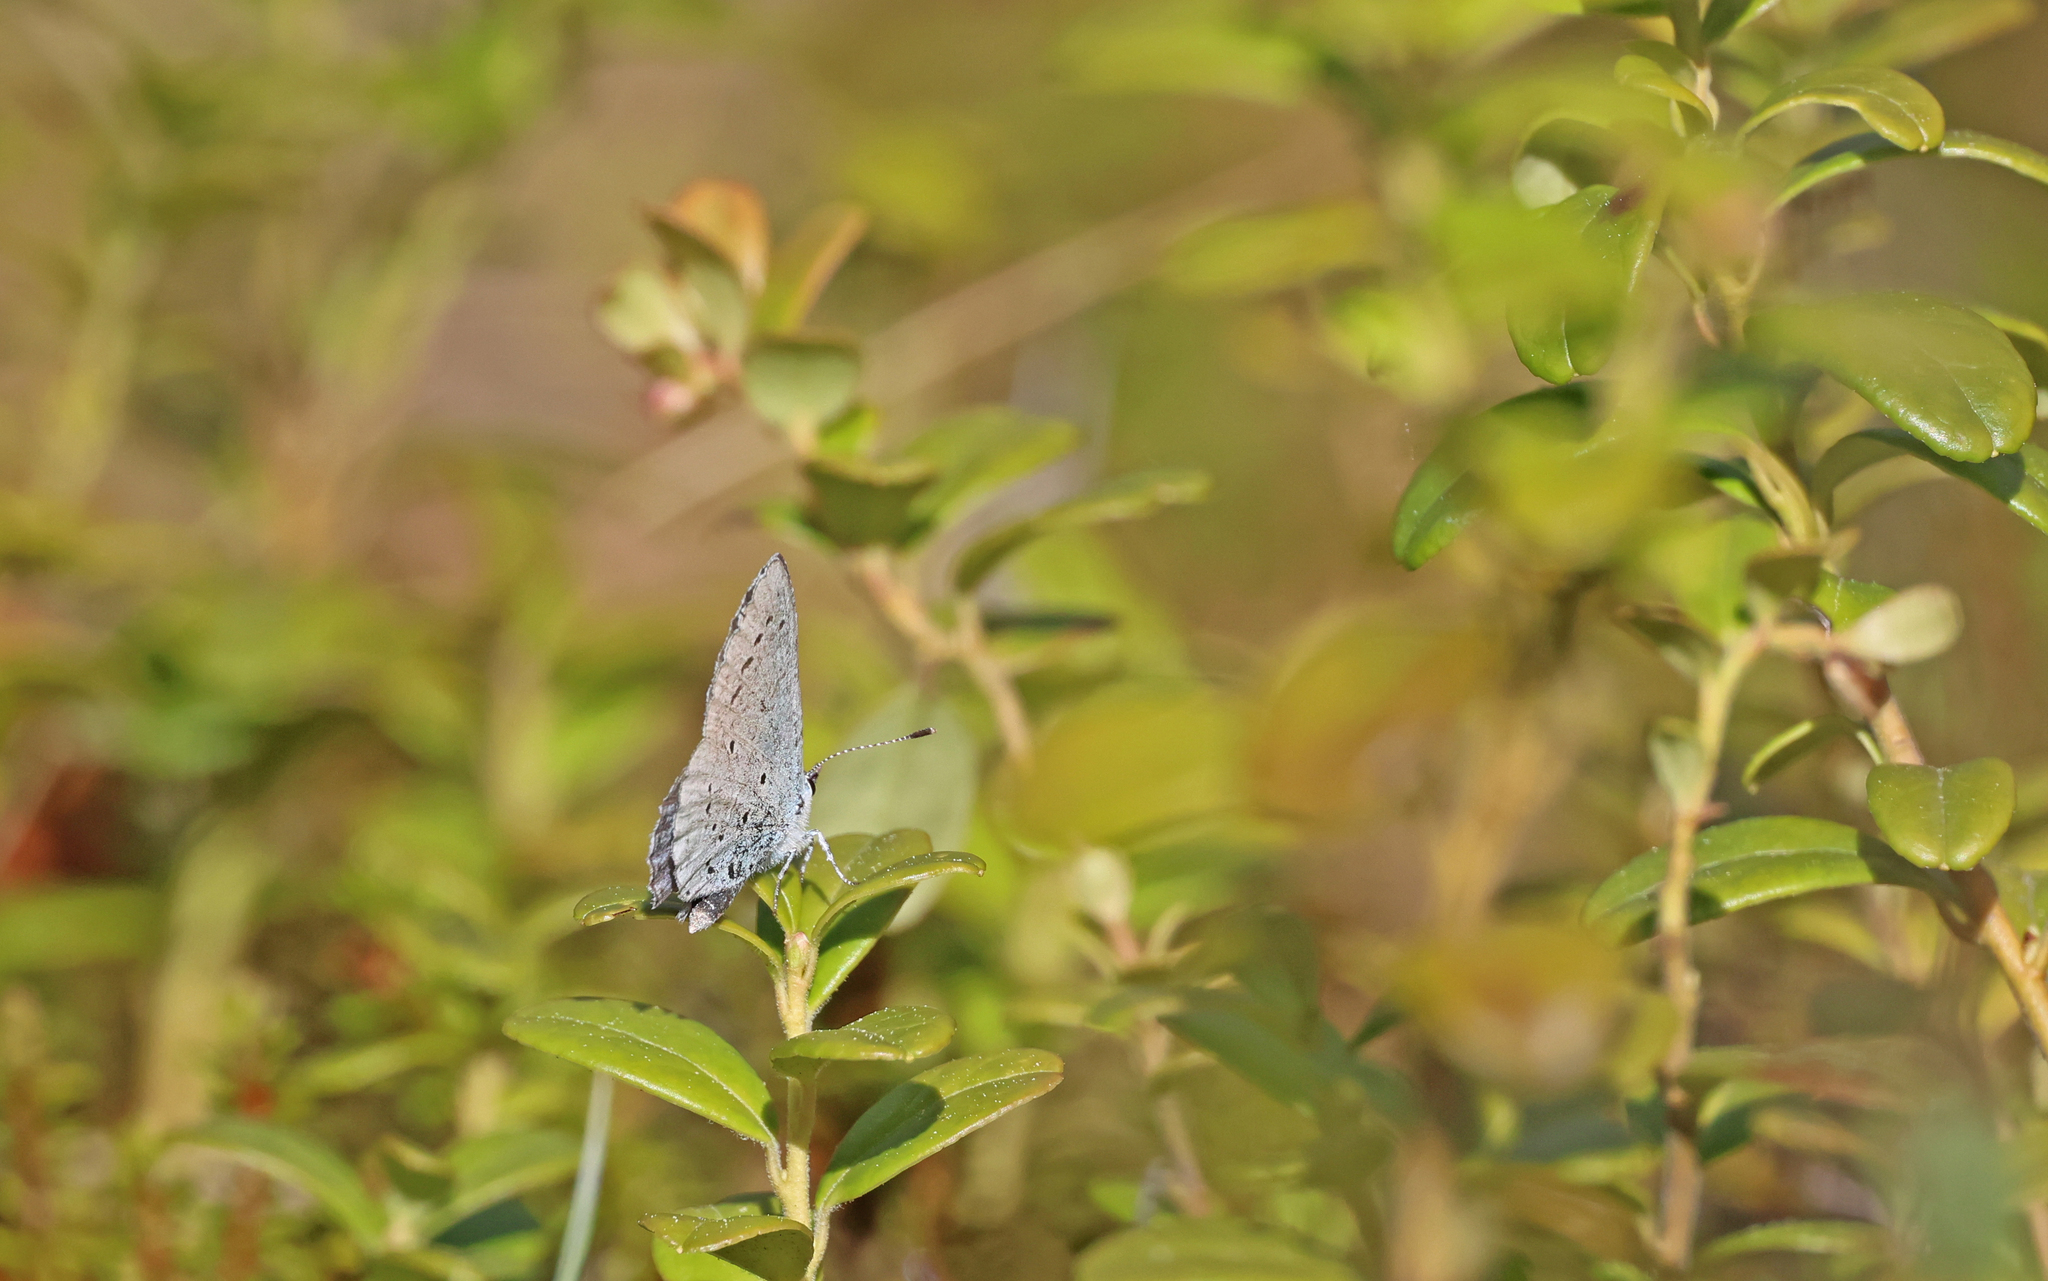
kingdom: Animalia
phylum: Arthropoda
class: Insecta
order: Lepidoptera
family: Lycaenidae
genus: Celastrina
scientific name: Celastrina argiolus
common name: Holly blue
